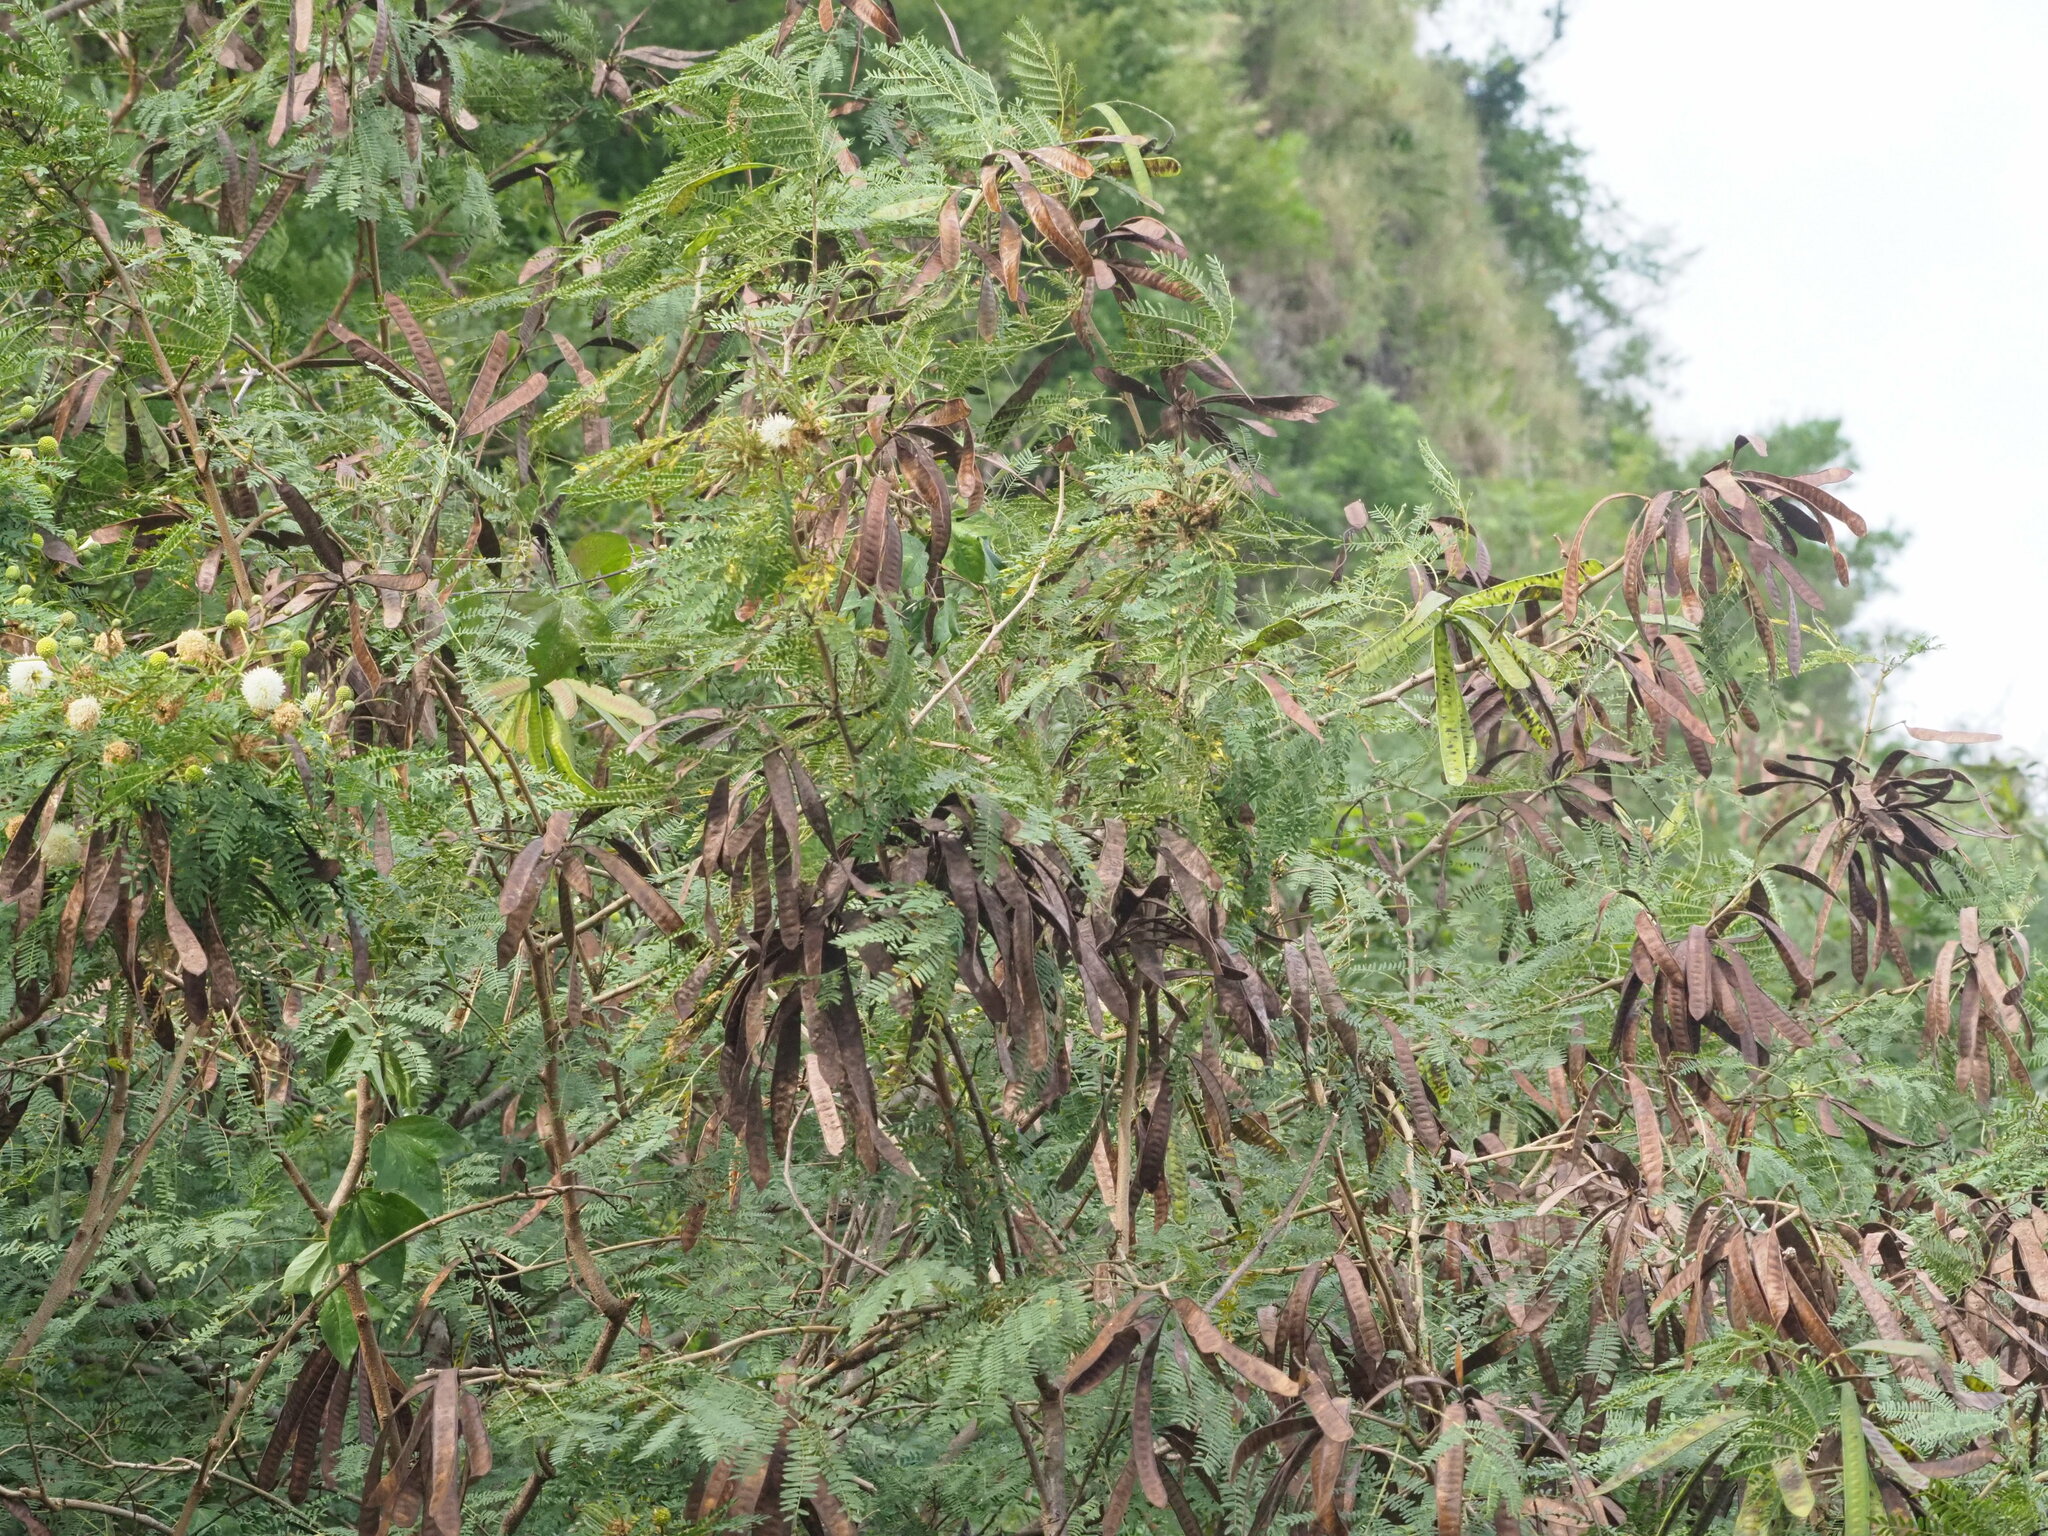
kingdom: Plantae
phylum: Tracheophyta
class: Magnoliopsida
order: Fabales
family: Fabaceae
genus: Leucaena
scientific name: Leucaena leucocephala
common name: White leadtree
